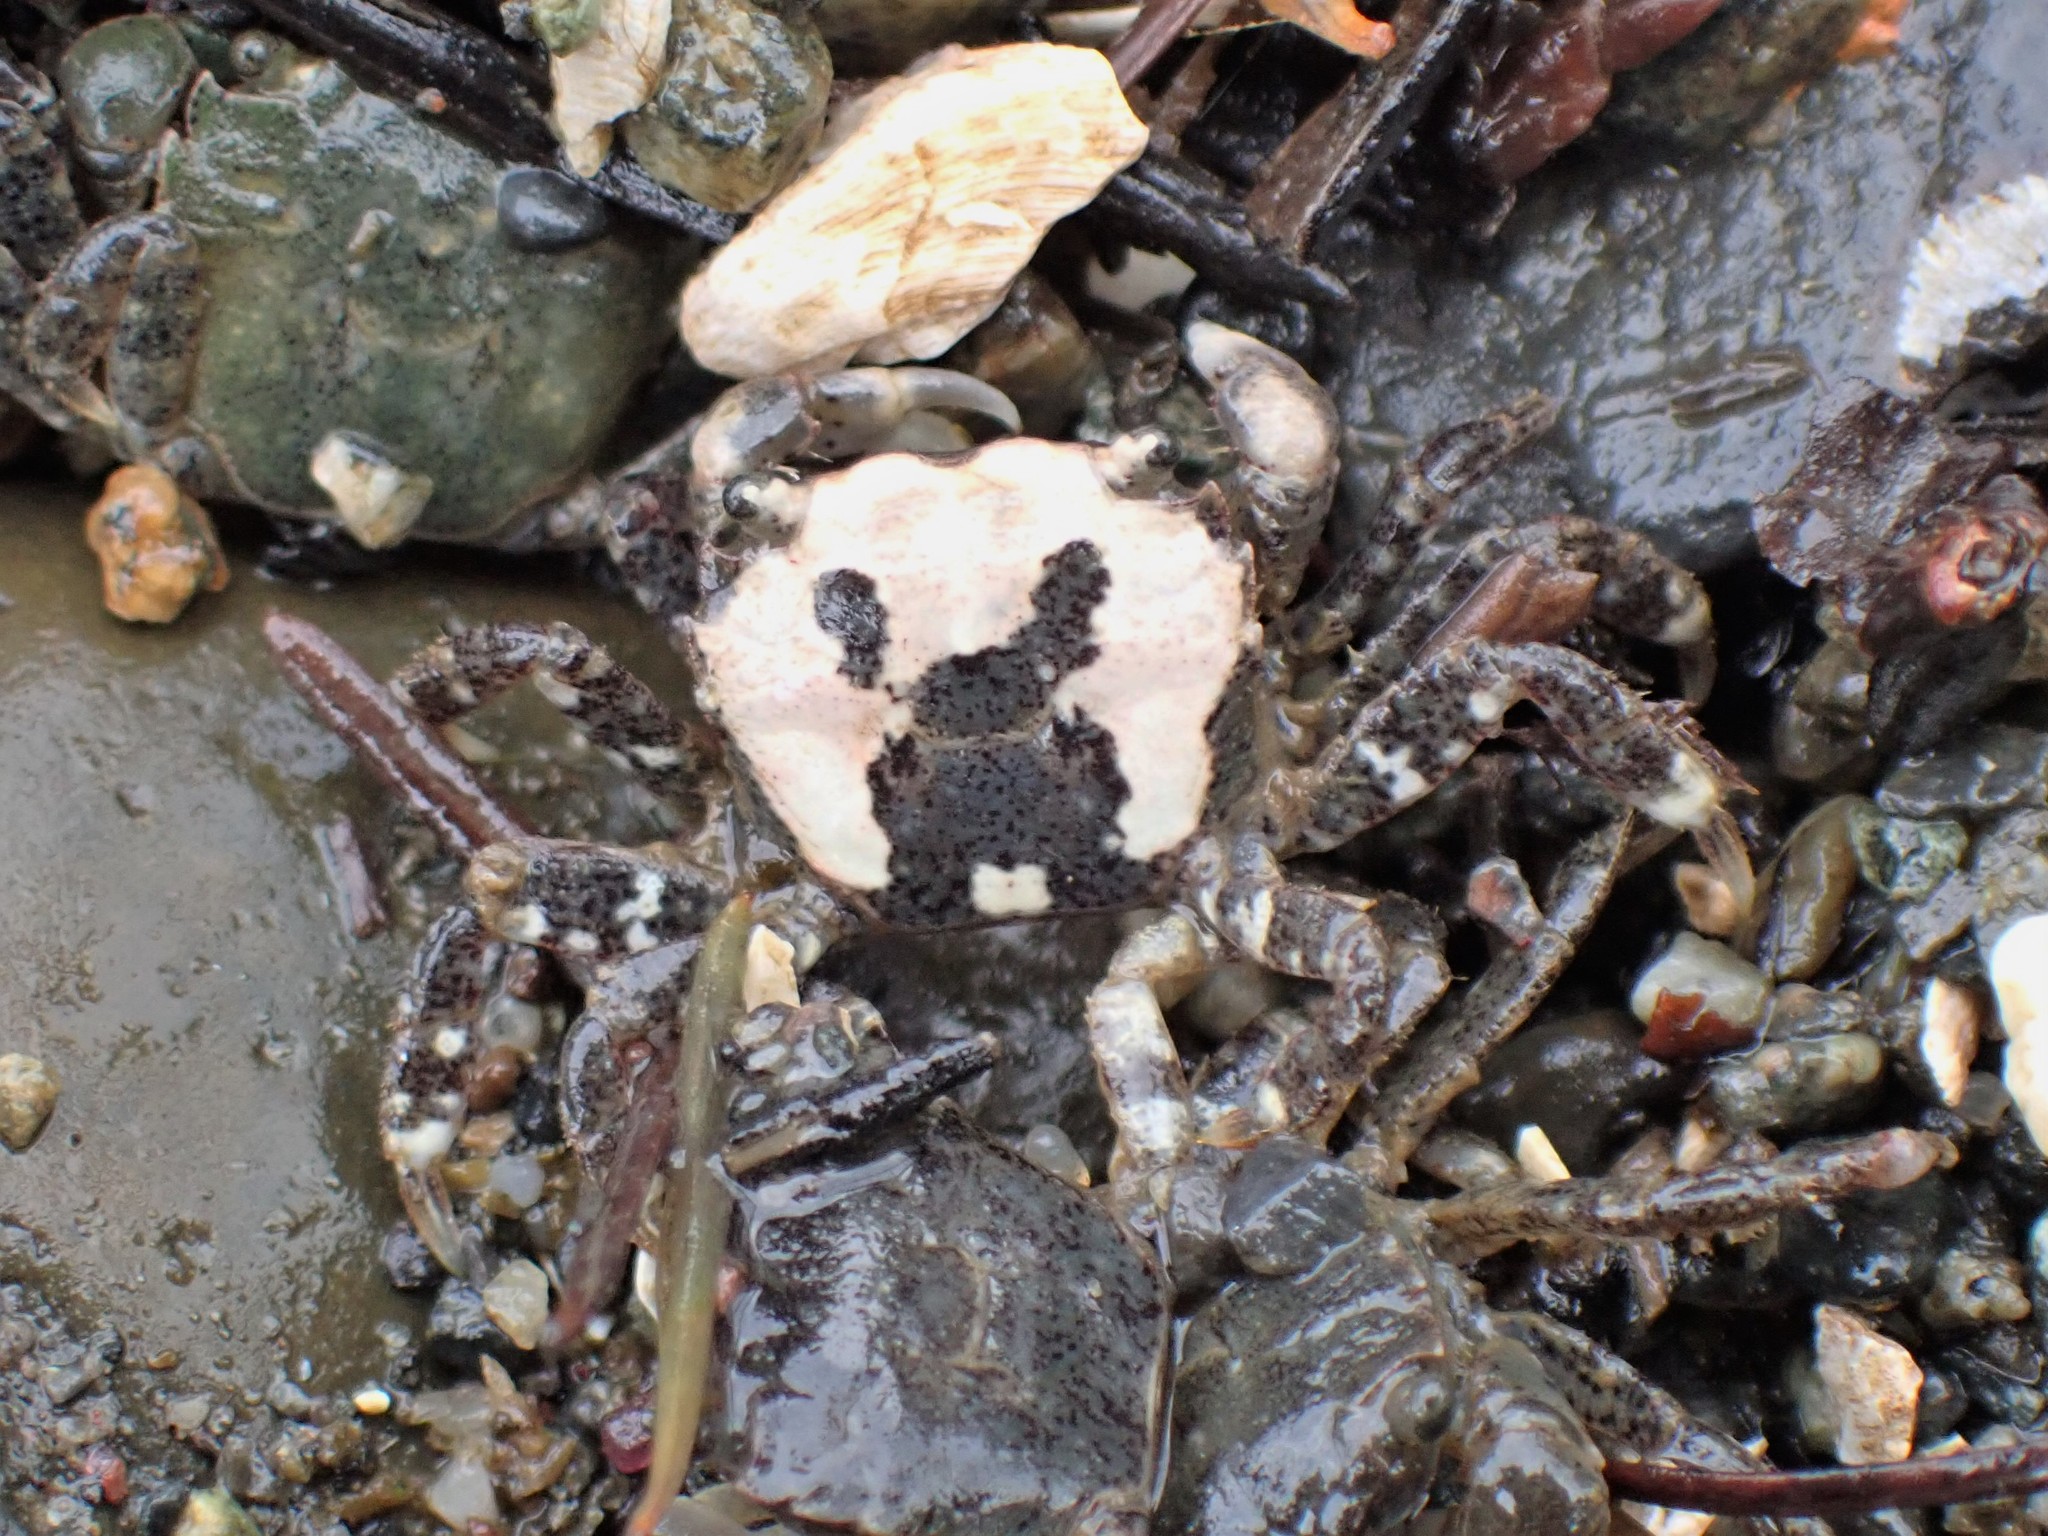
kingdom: Animalia
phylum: Arthropoda
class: Malacostraca
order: Decapoda
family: Varunidae
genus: Hemigrapsus
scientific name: Hemigrapsus oregonensis
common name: Yellow shore crab
